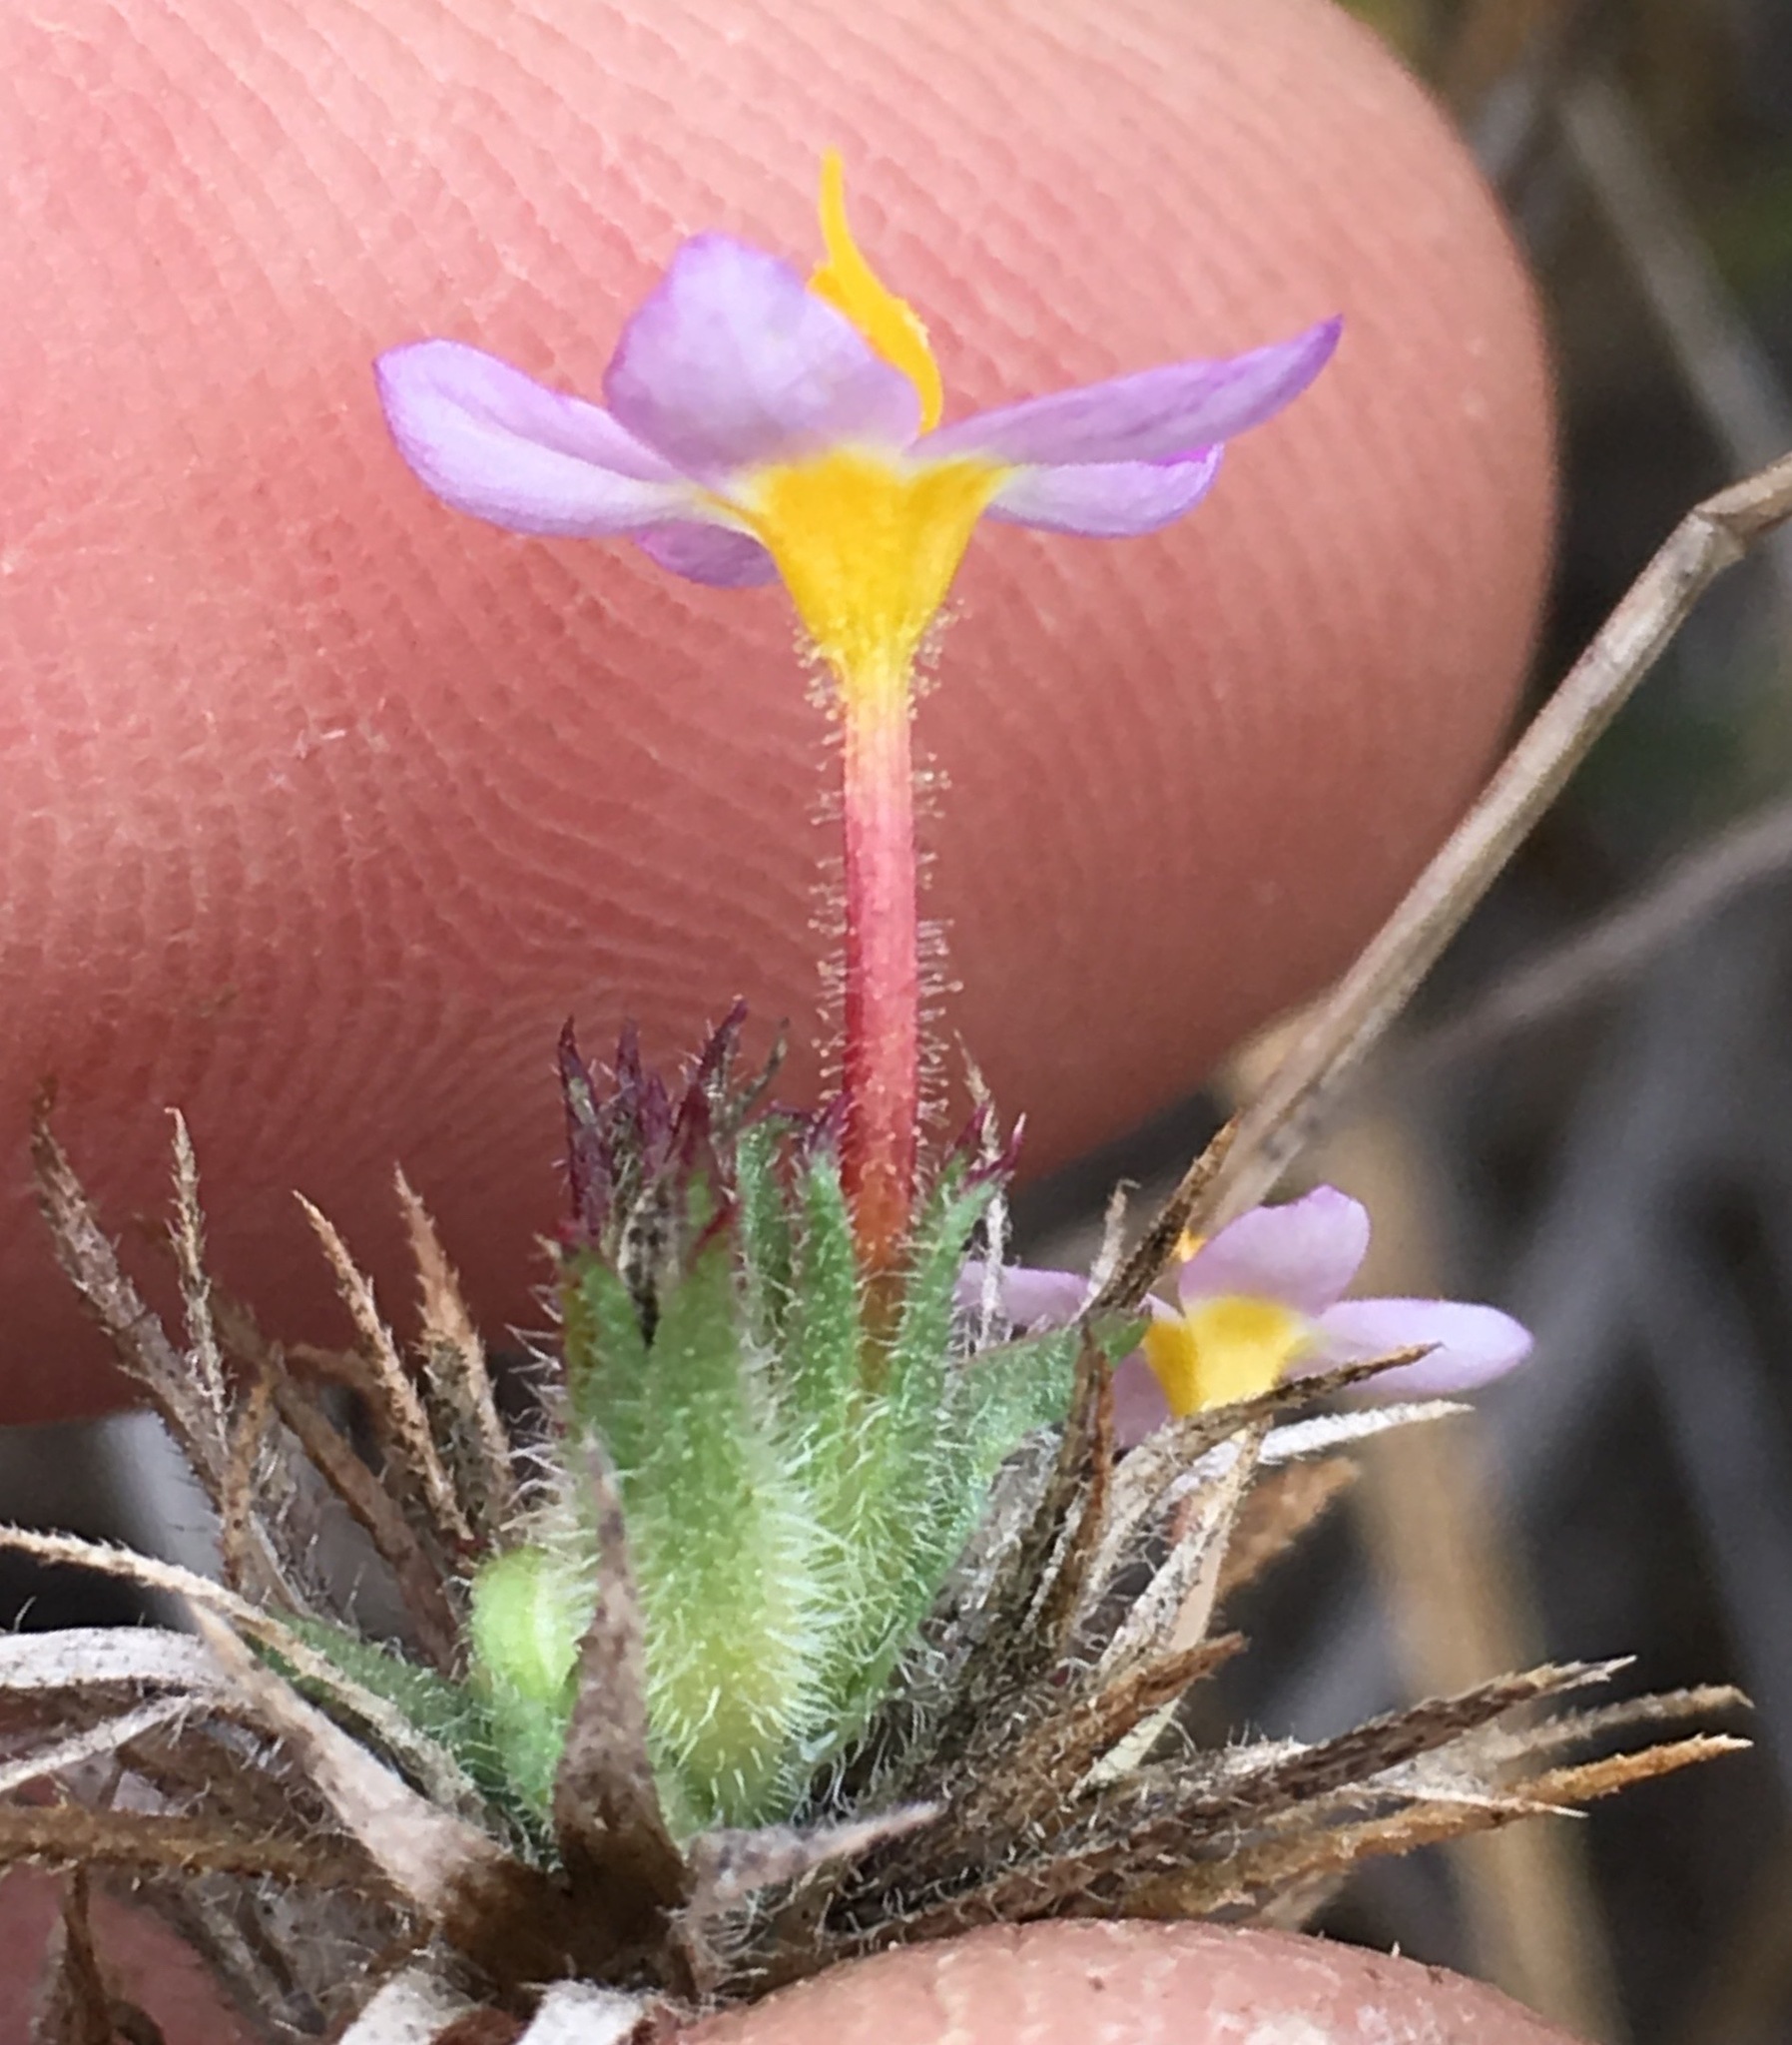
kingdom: Plantae
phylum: Tracheophyta
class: Magnoliopsida
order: Ericales
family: Polemoniaceae
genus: Leptosiphon
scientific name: Leptosiphon bicolor
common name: True babystars
